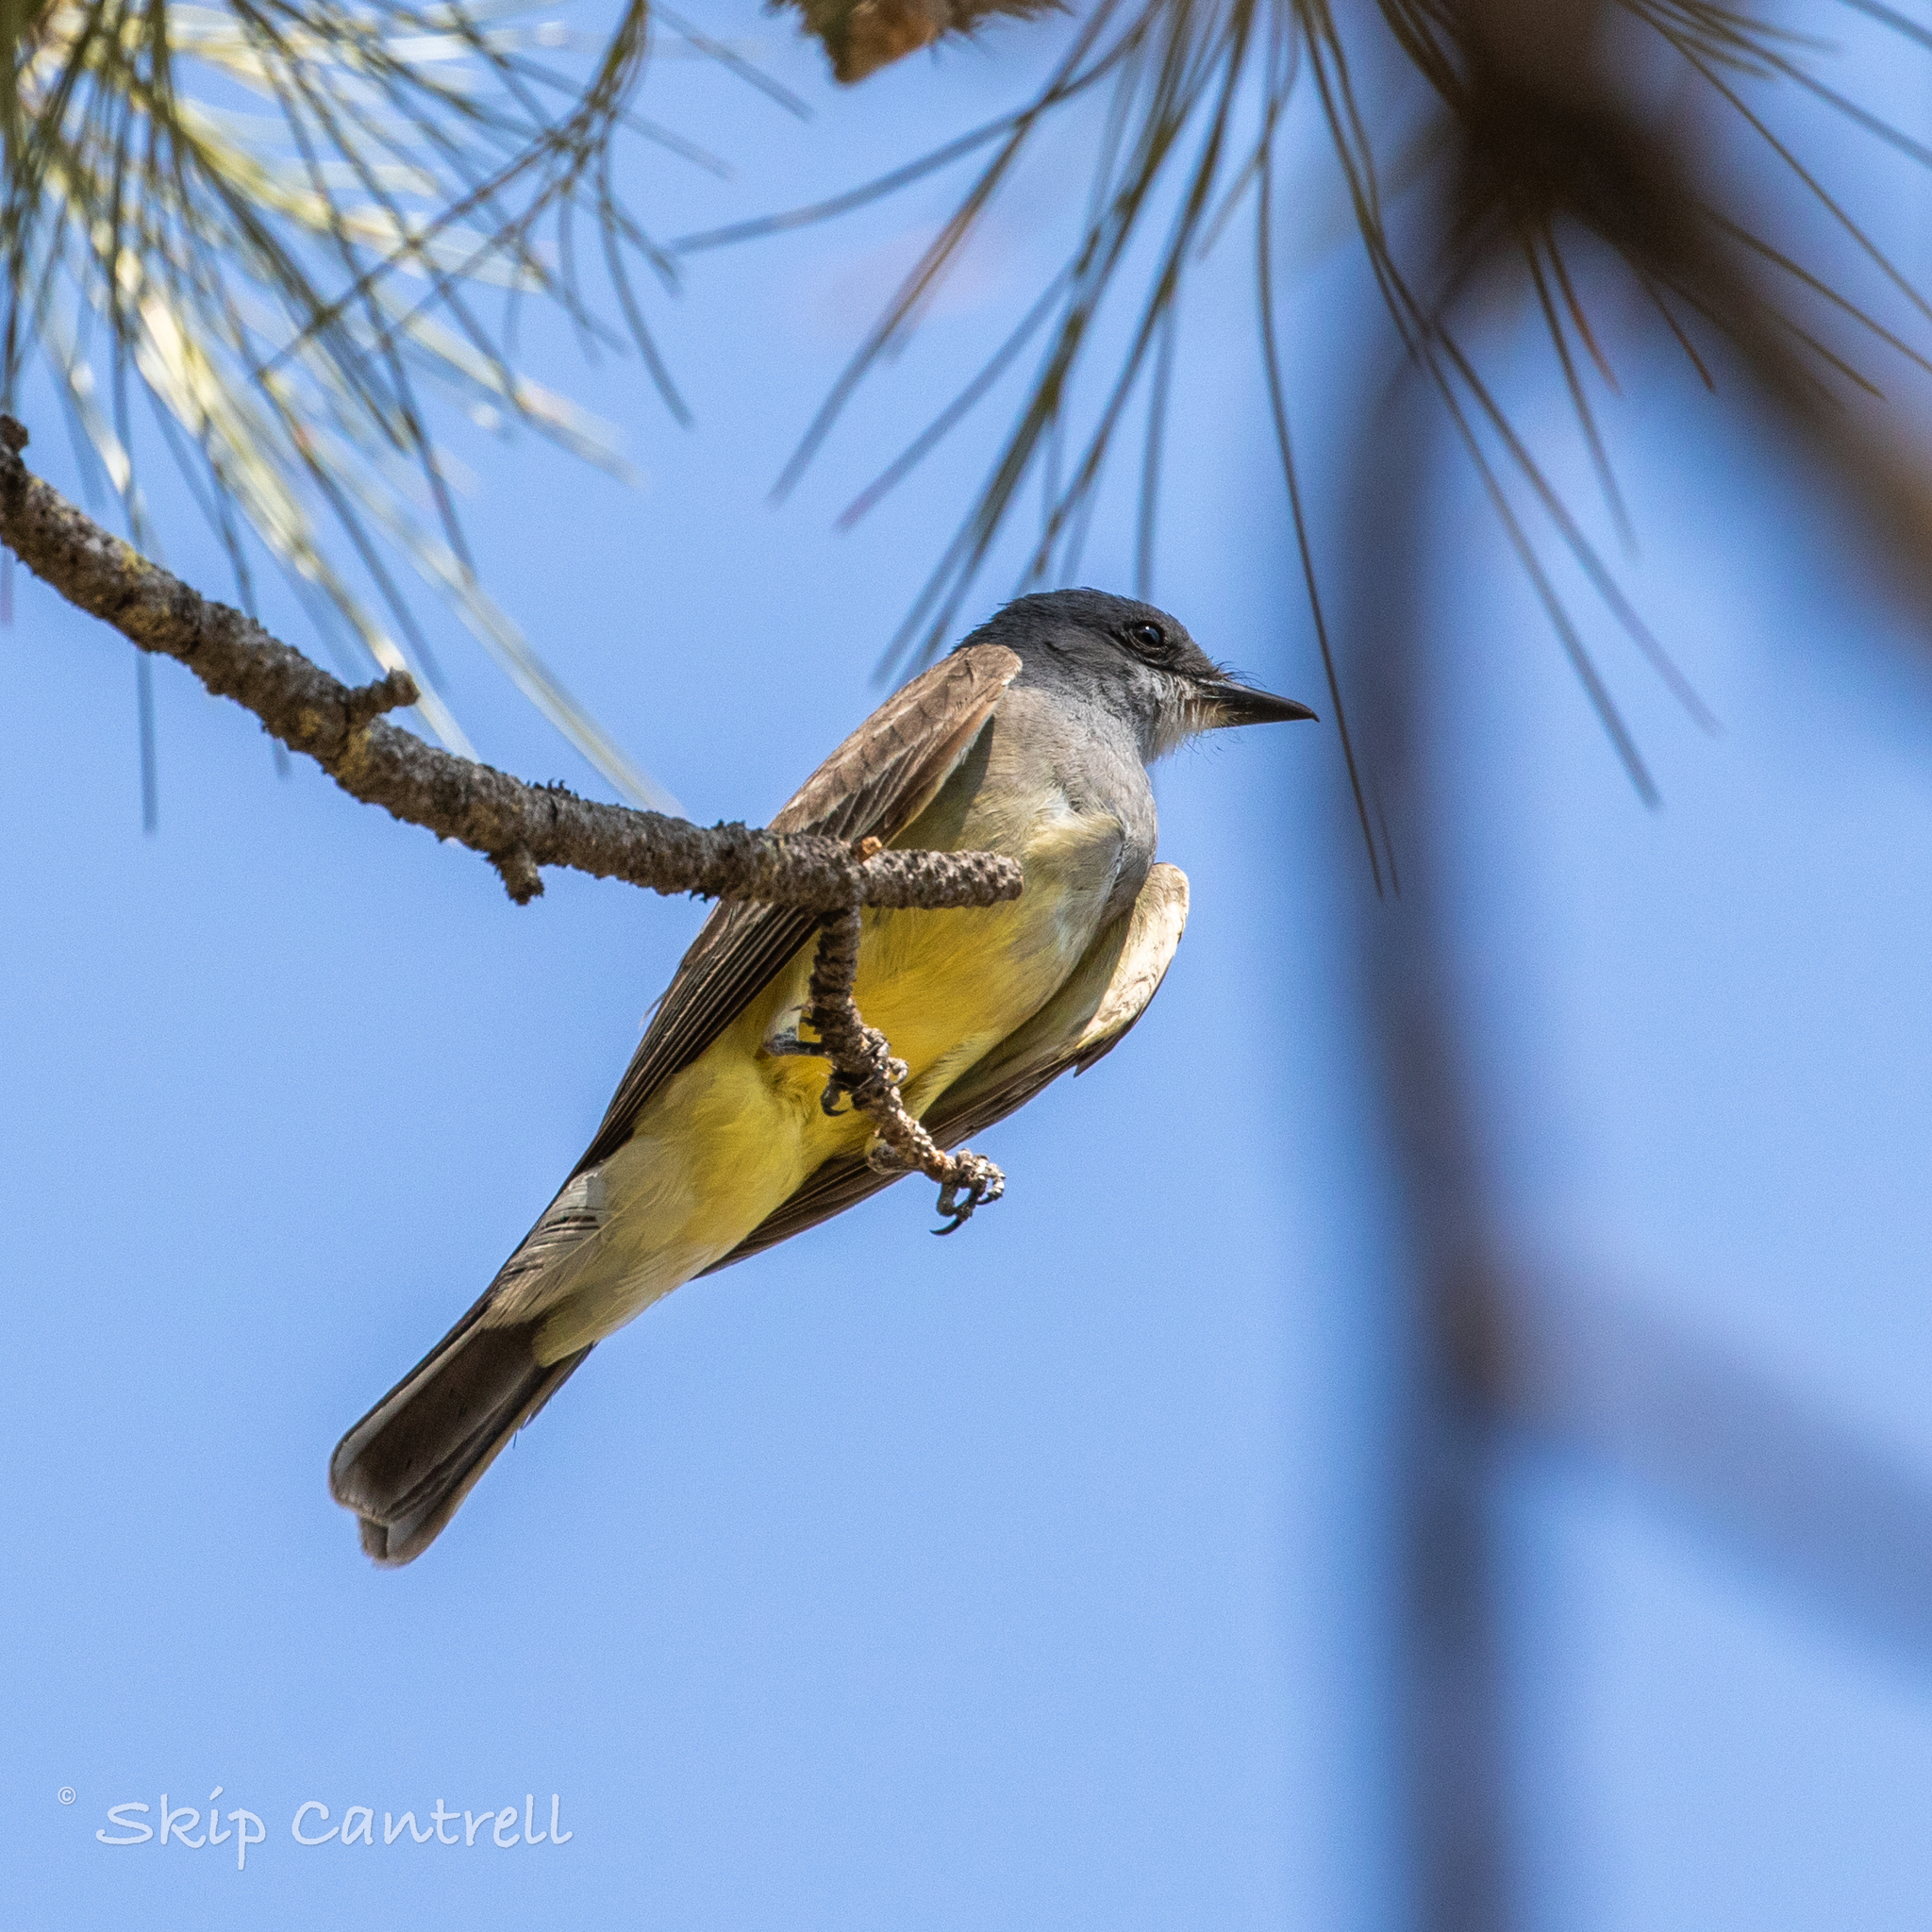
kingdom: Animalia
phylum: Chordata
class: Aves
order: Passeriformes
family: Tyrannidae
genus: Tyrannus
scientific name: Tyrannus vociferans
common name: Cassin's kingbird
